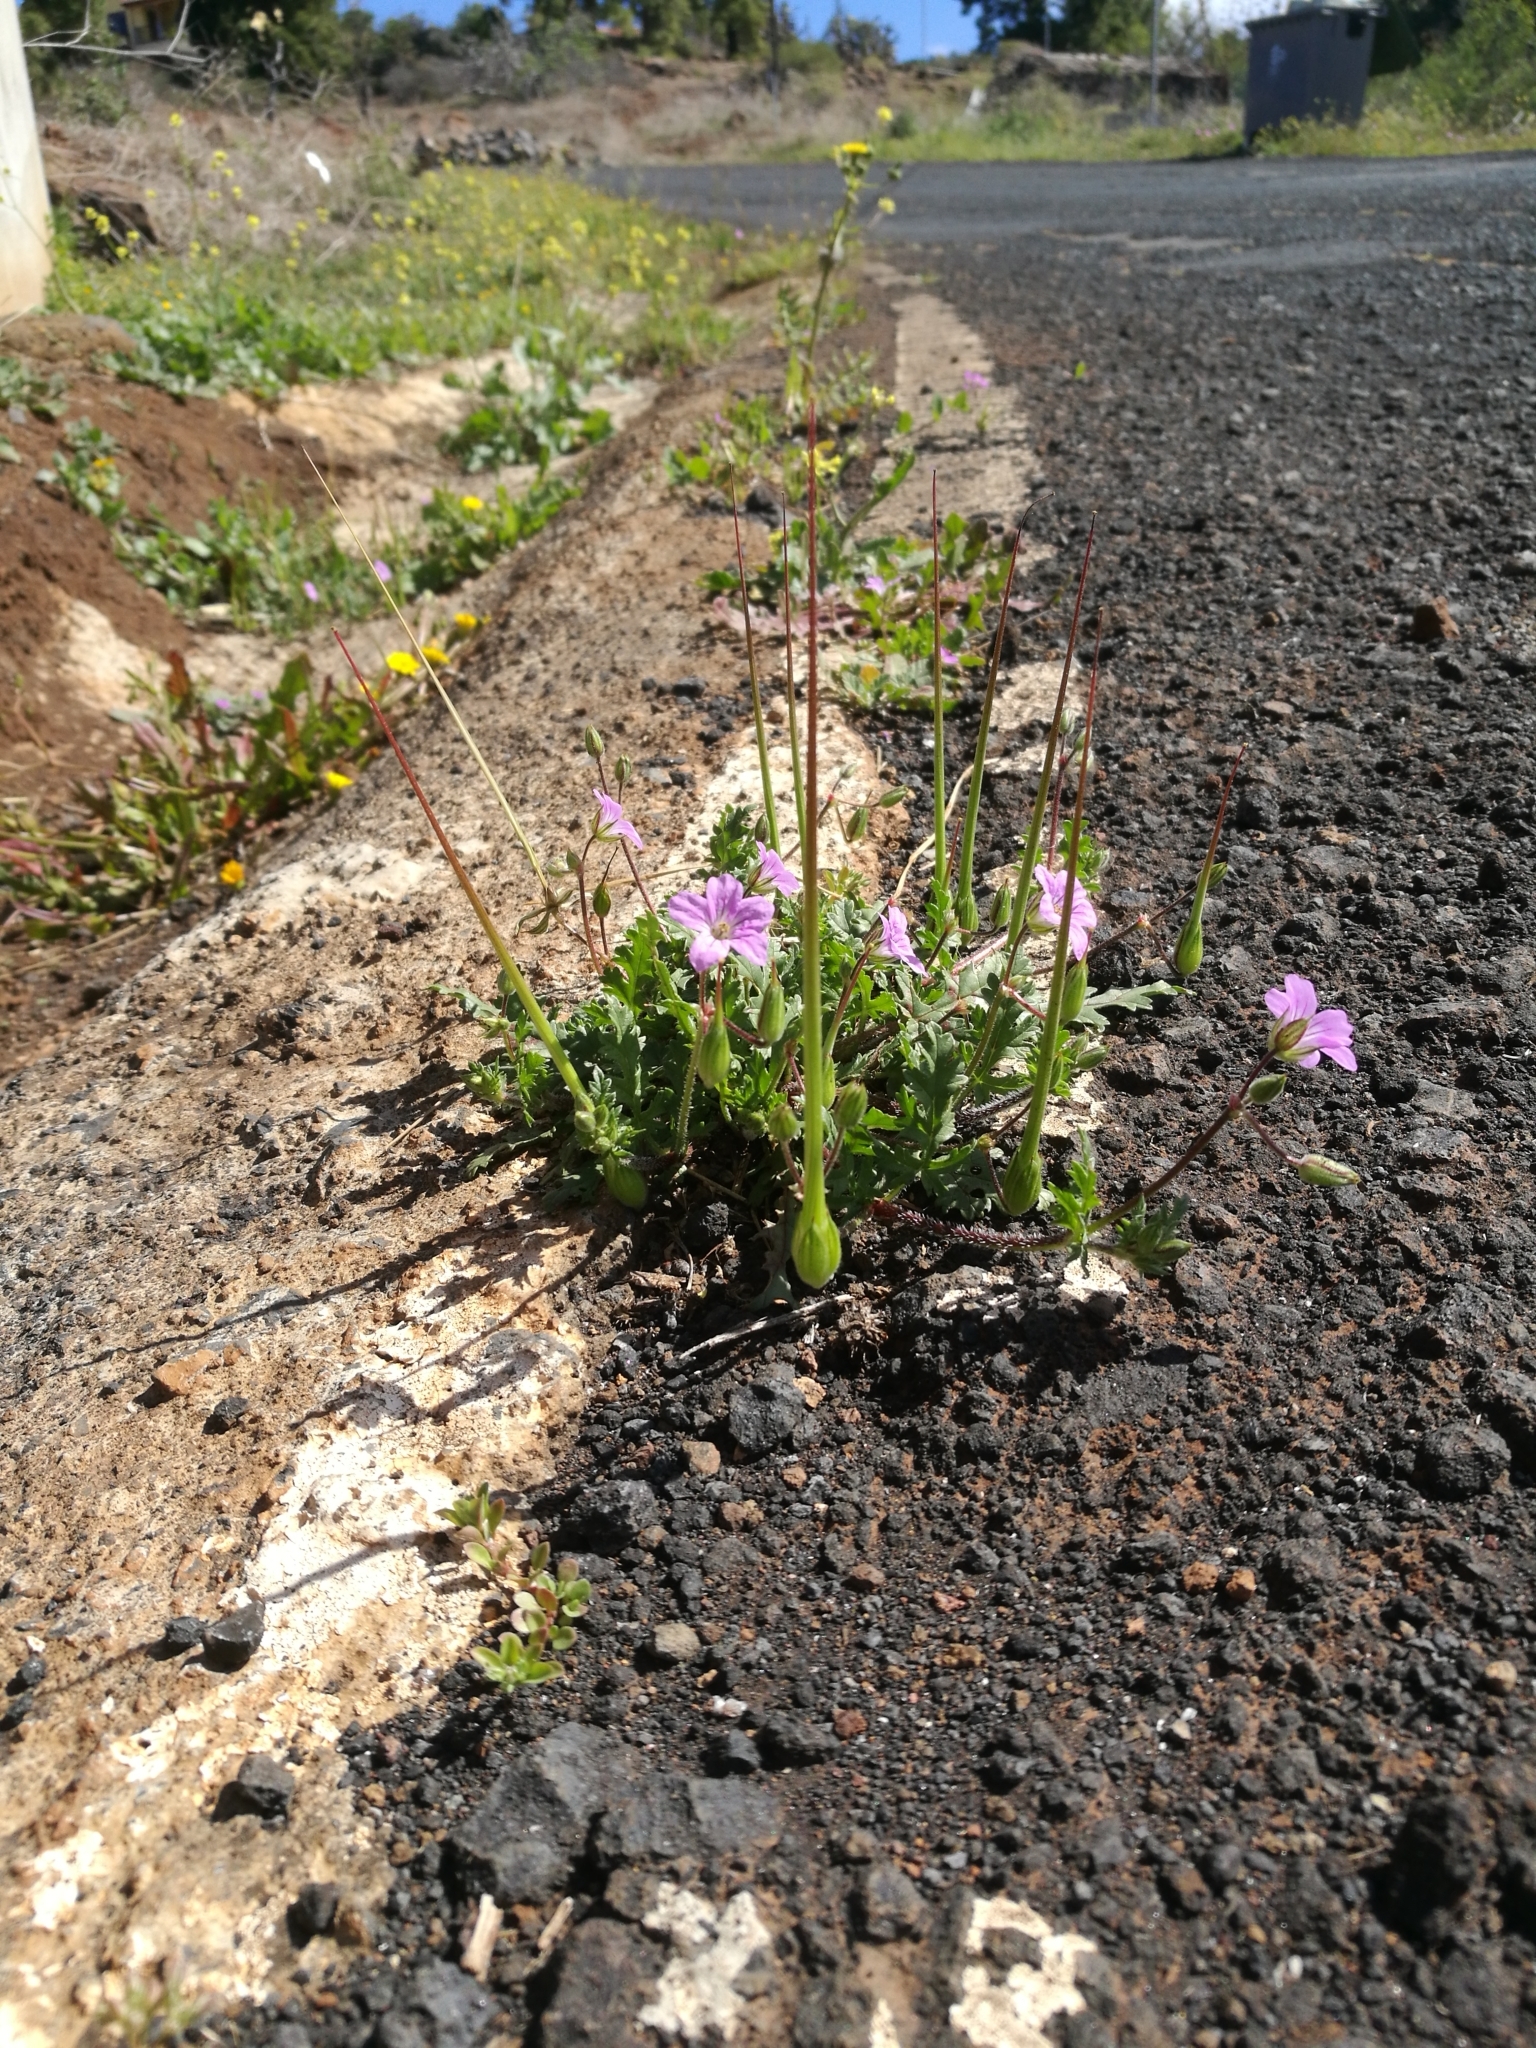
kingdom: Plantae
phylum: Tracheophyta
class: Magnoliopsida
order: Geraniales
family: Geraniaceae
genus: Erodium
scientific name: Erodium botrys
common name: Mediterranean stork's-bill
